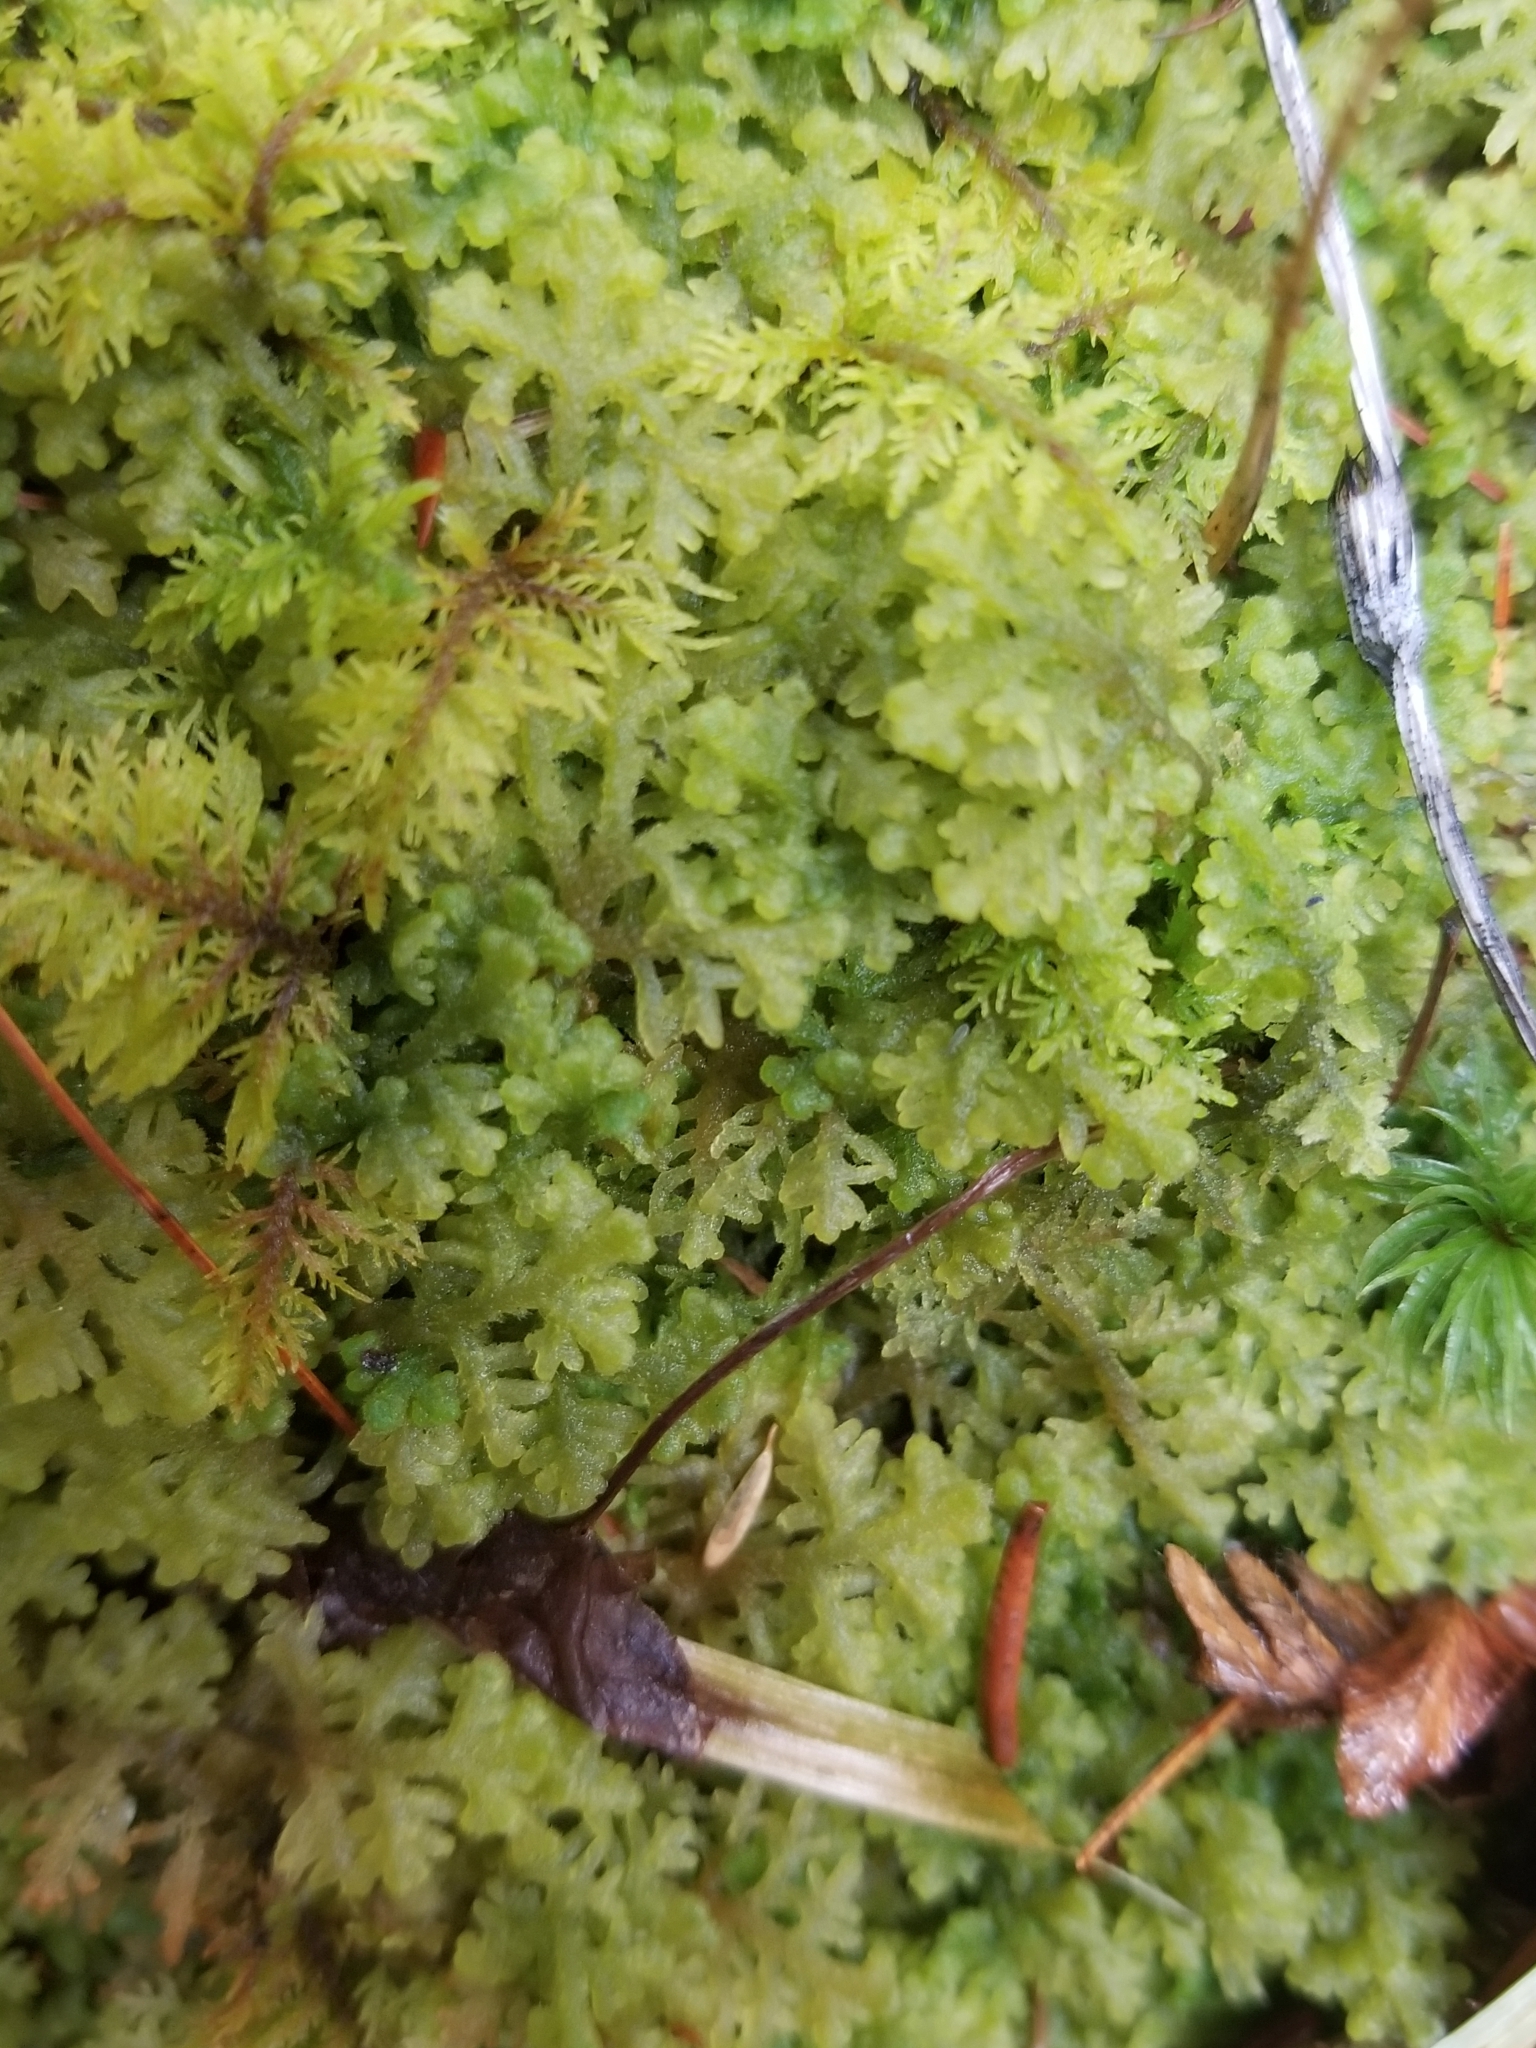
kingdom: Plantae
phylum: Marchantiophyta
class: Jungermanniopsida
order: Jungermanniales
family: Trichocoleaceae
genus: Trichocolea
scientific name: Trichocolea tomentella
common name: Woolly liverwort
